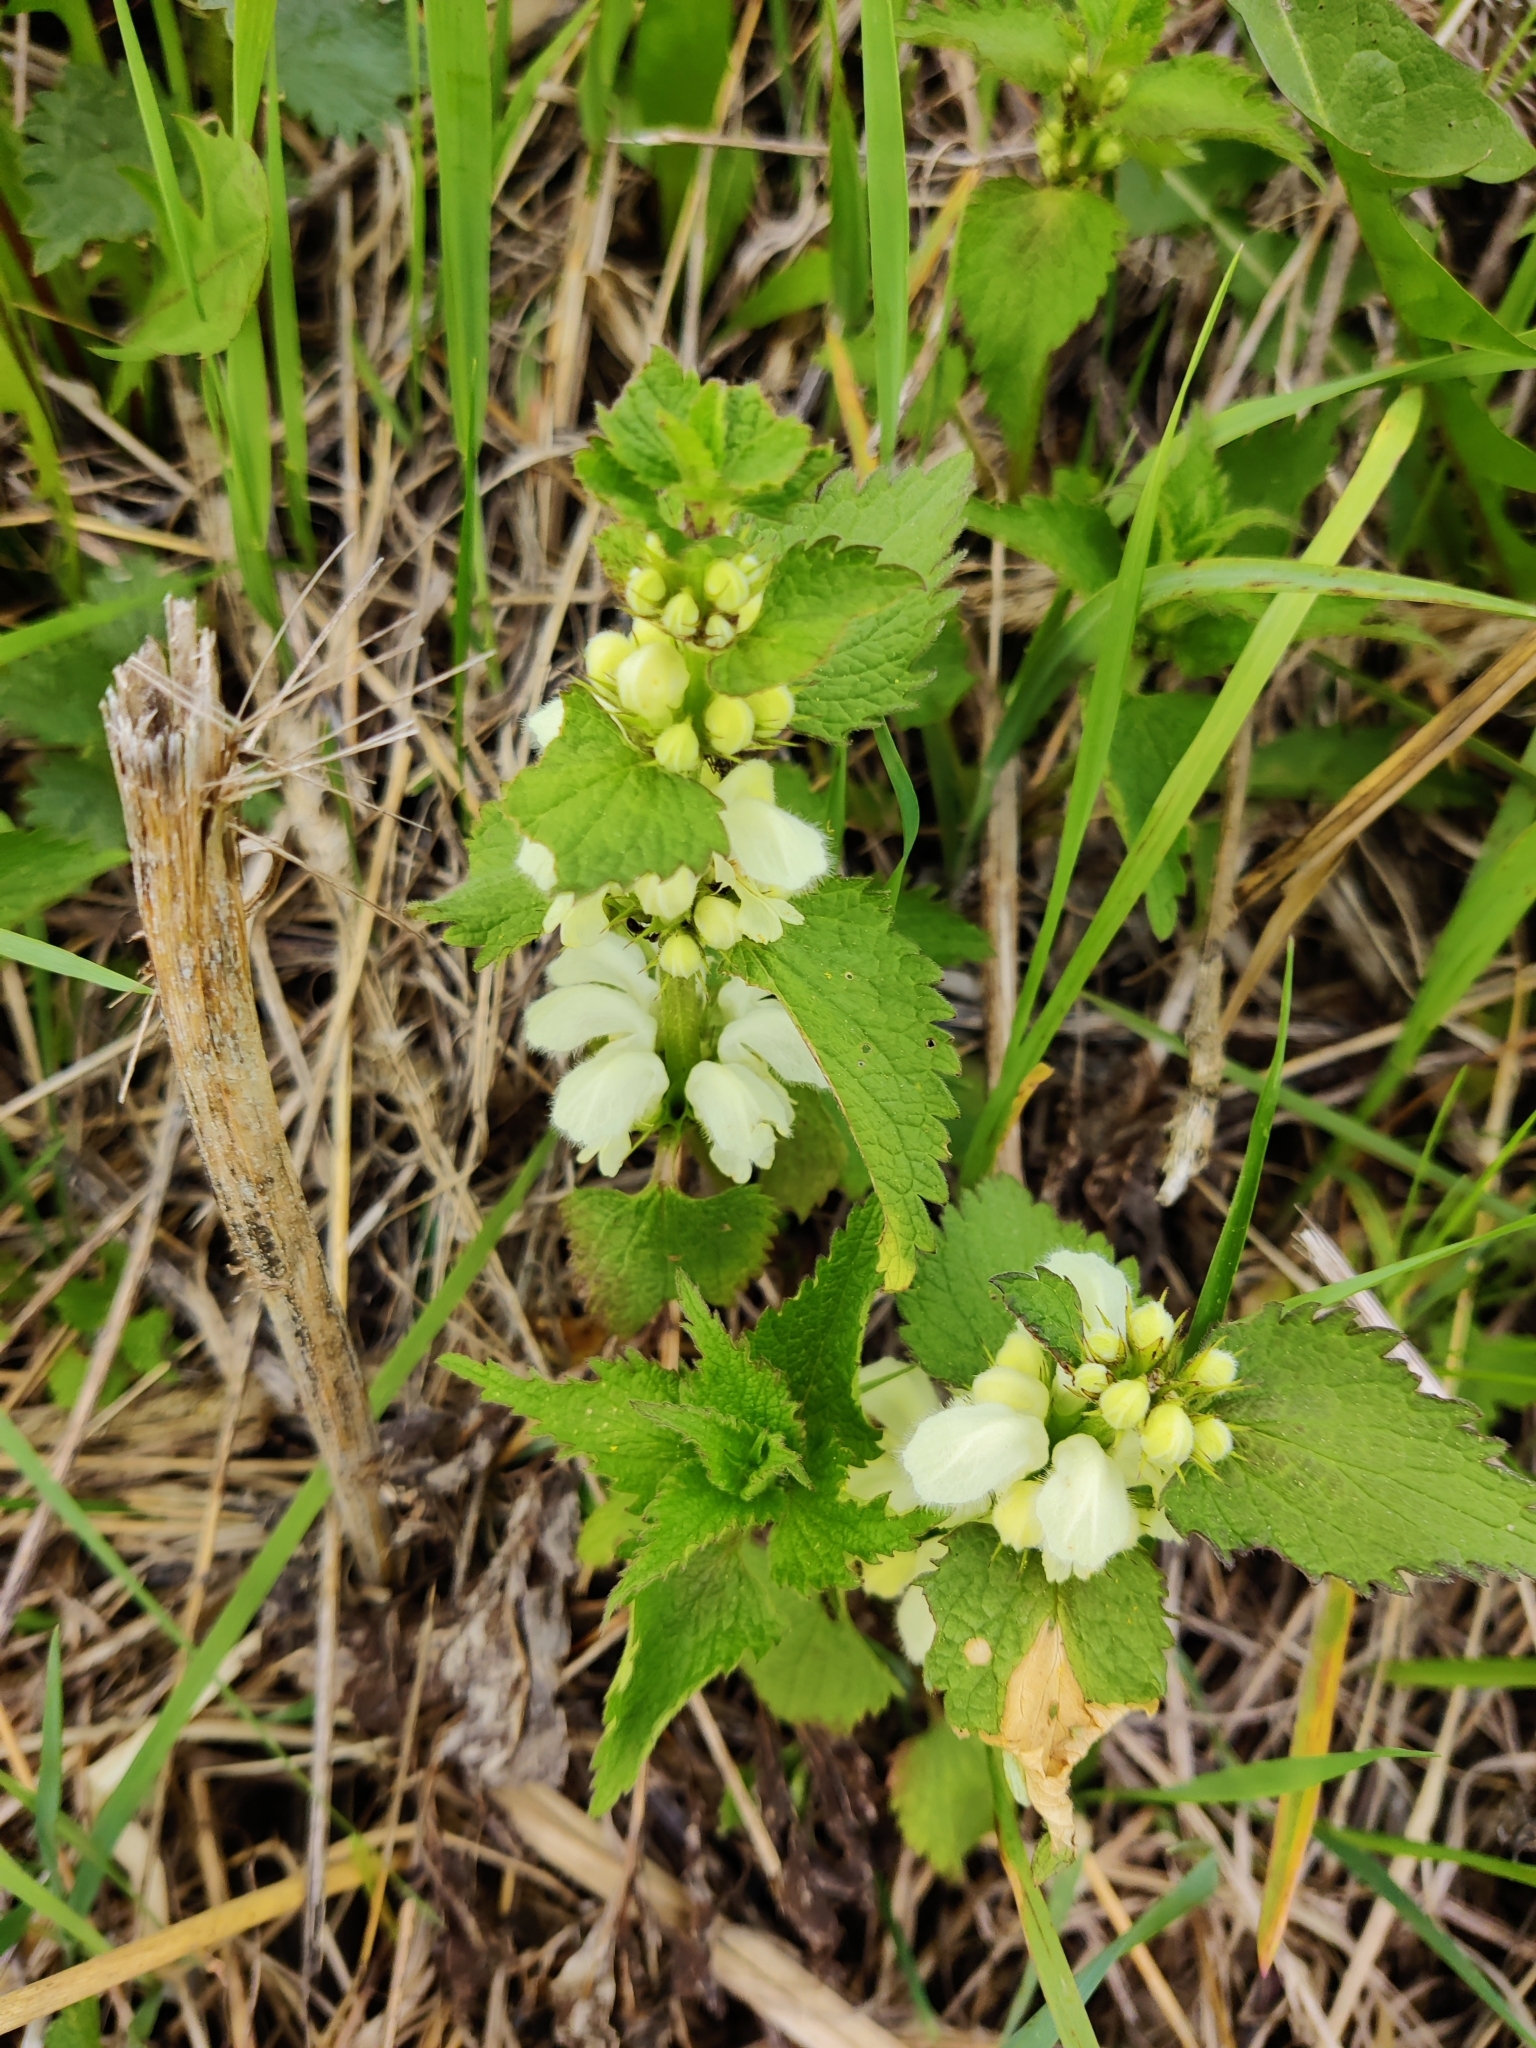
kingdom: Plantae
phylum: Tracheophyta
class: Magnoliopsida
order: Lamiales
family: Lamiaceae
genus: Lamium
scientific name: Lamium album
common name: White dead-nettle
